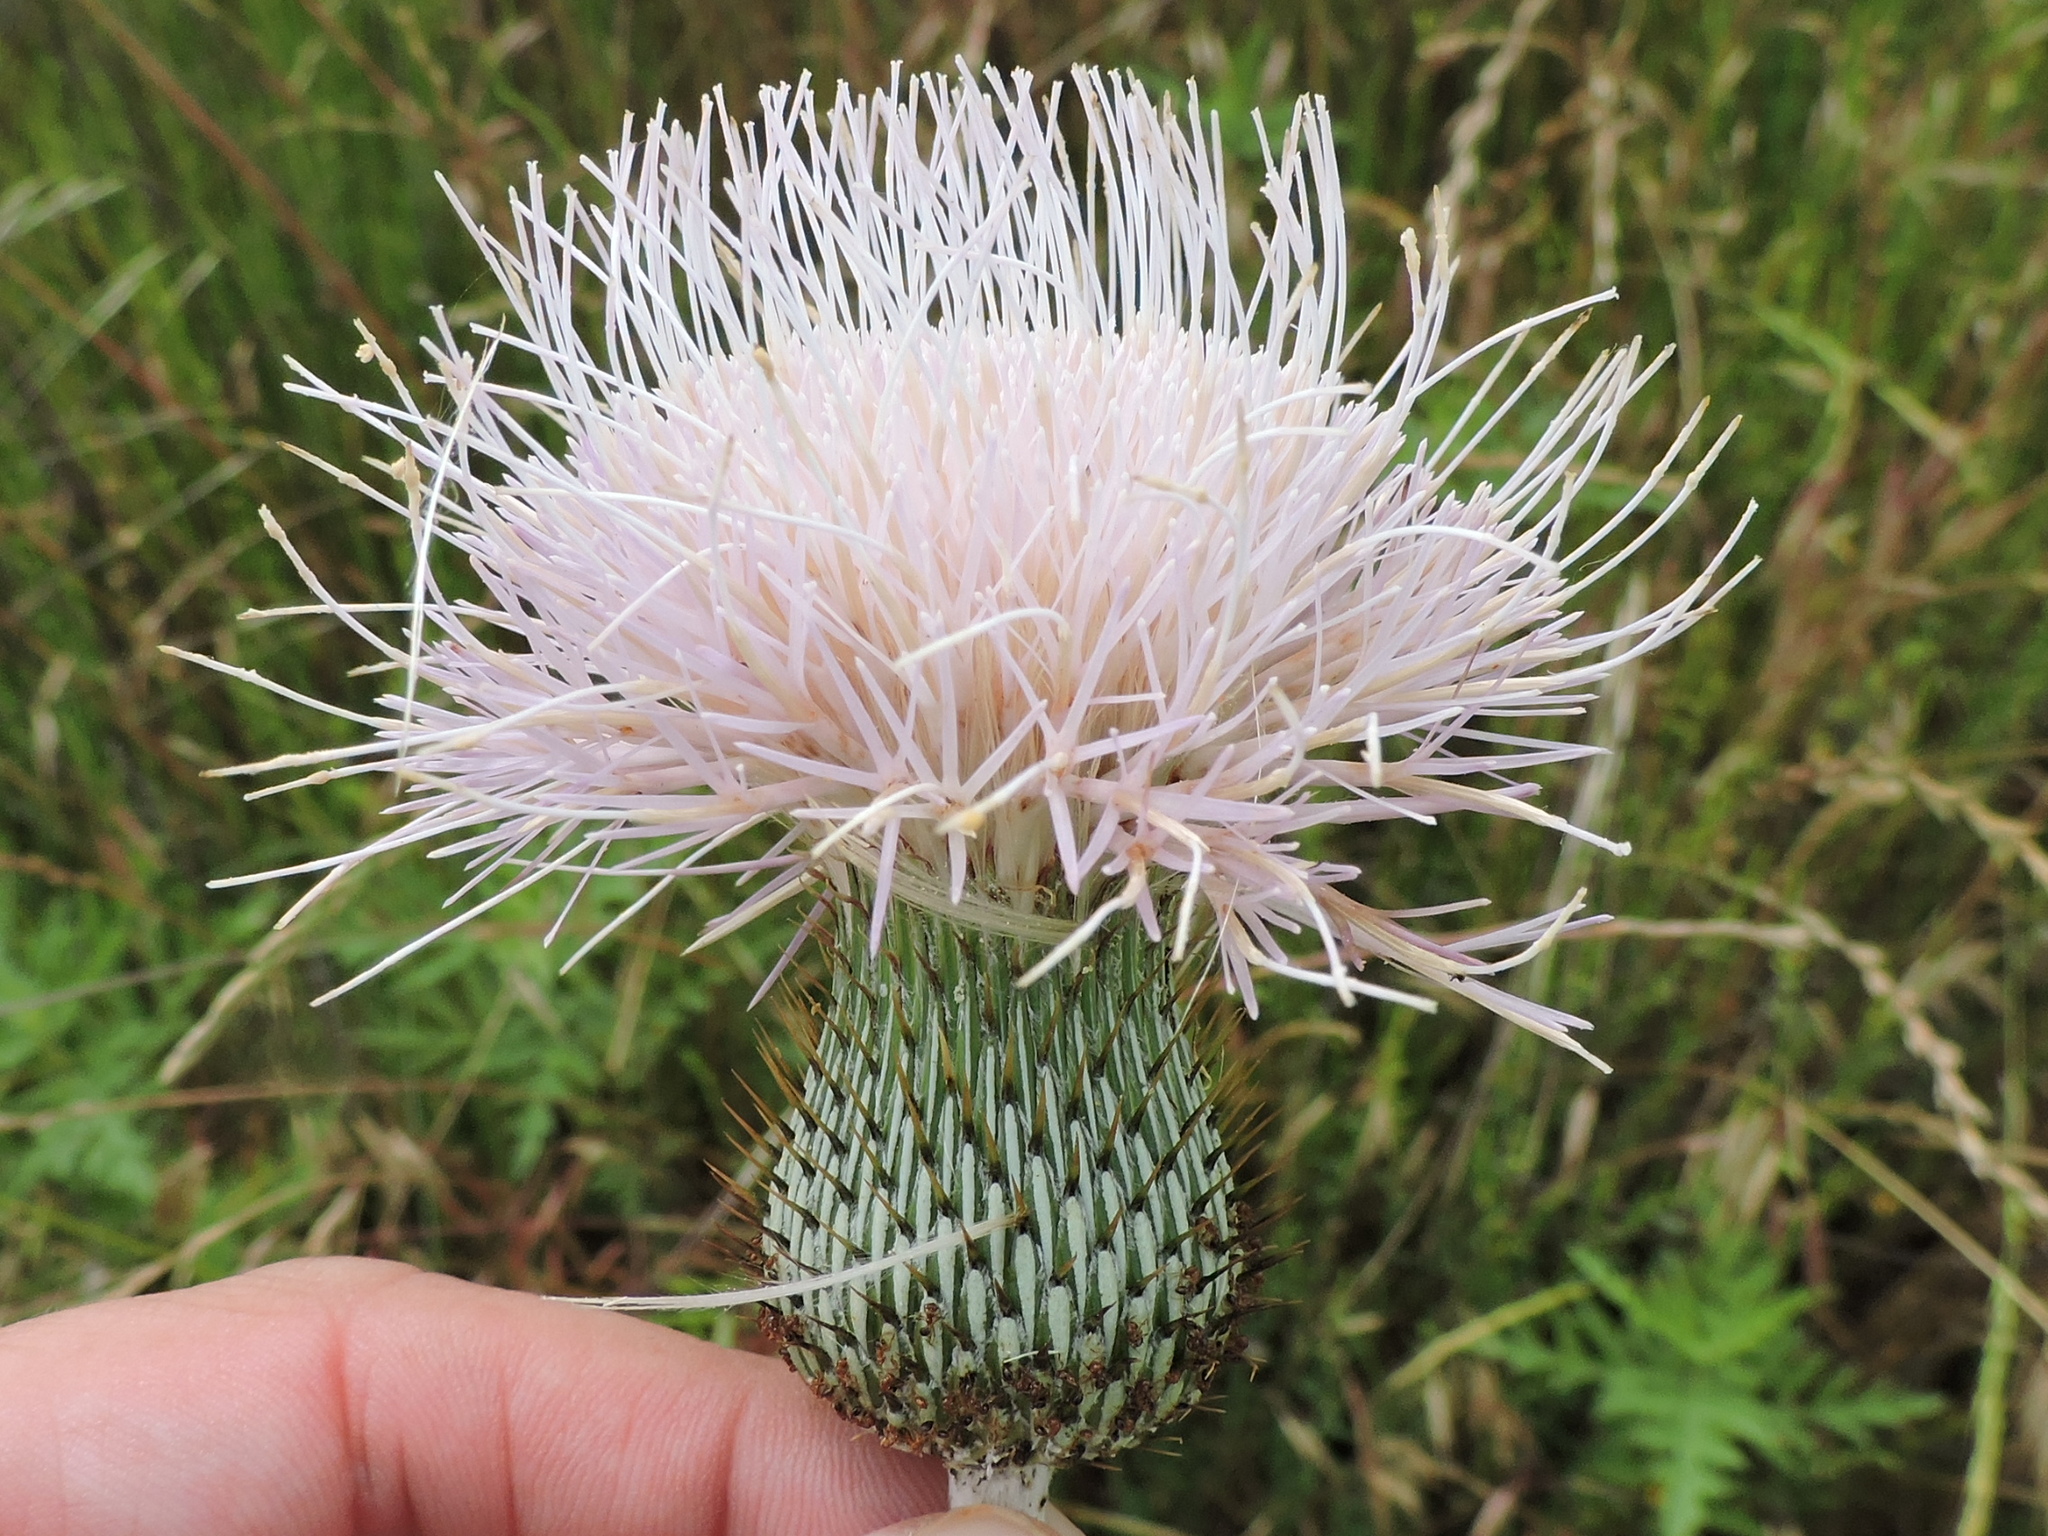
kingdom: Plantae
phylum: Tracheophyta
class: Magnoliopsida
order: Asterales
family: Asteraceae
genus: Cirsium
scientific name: Cirsium undulatum
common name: Pasture thistle
